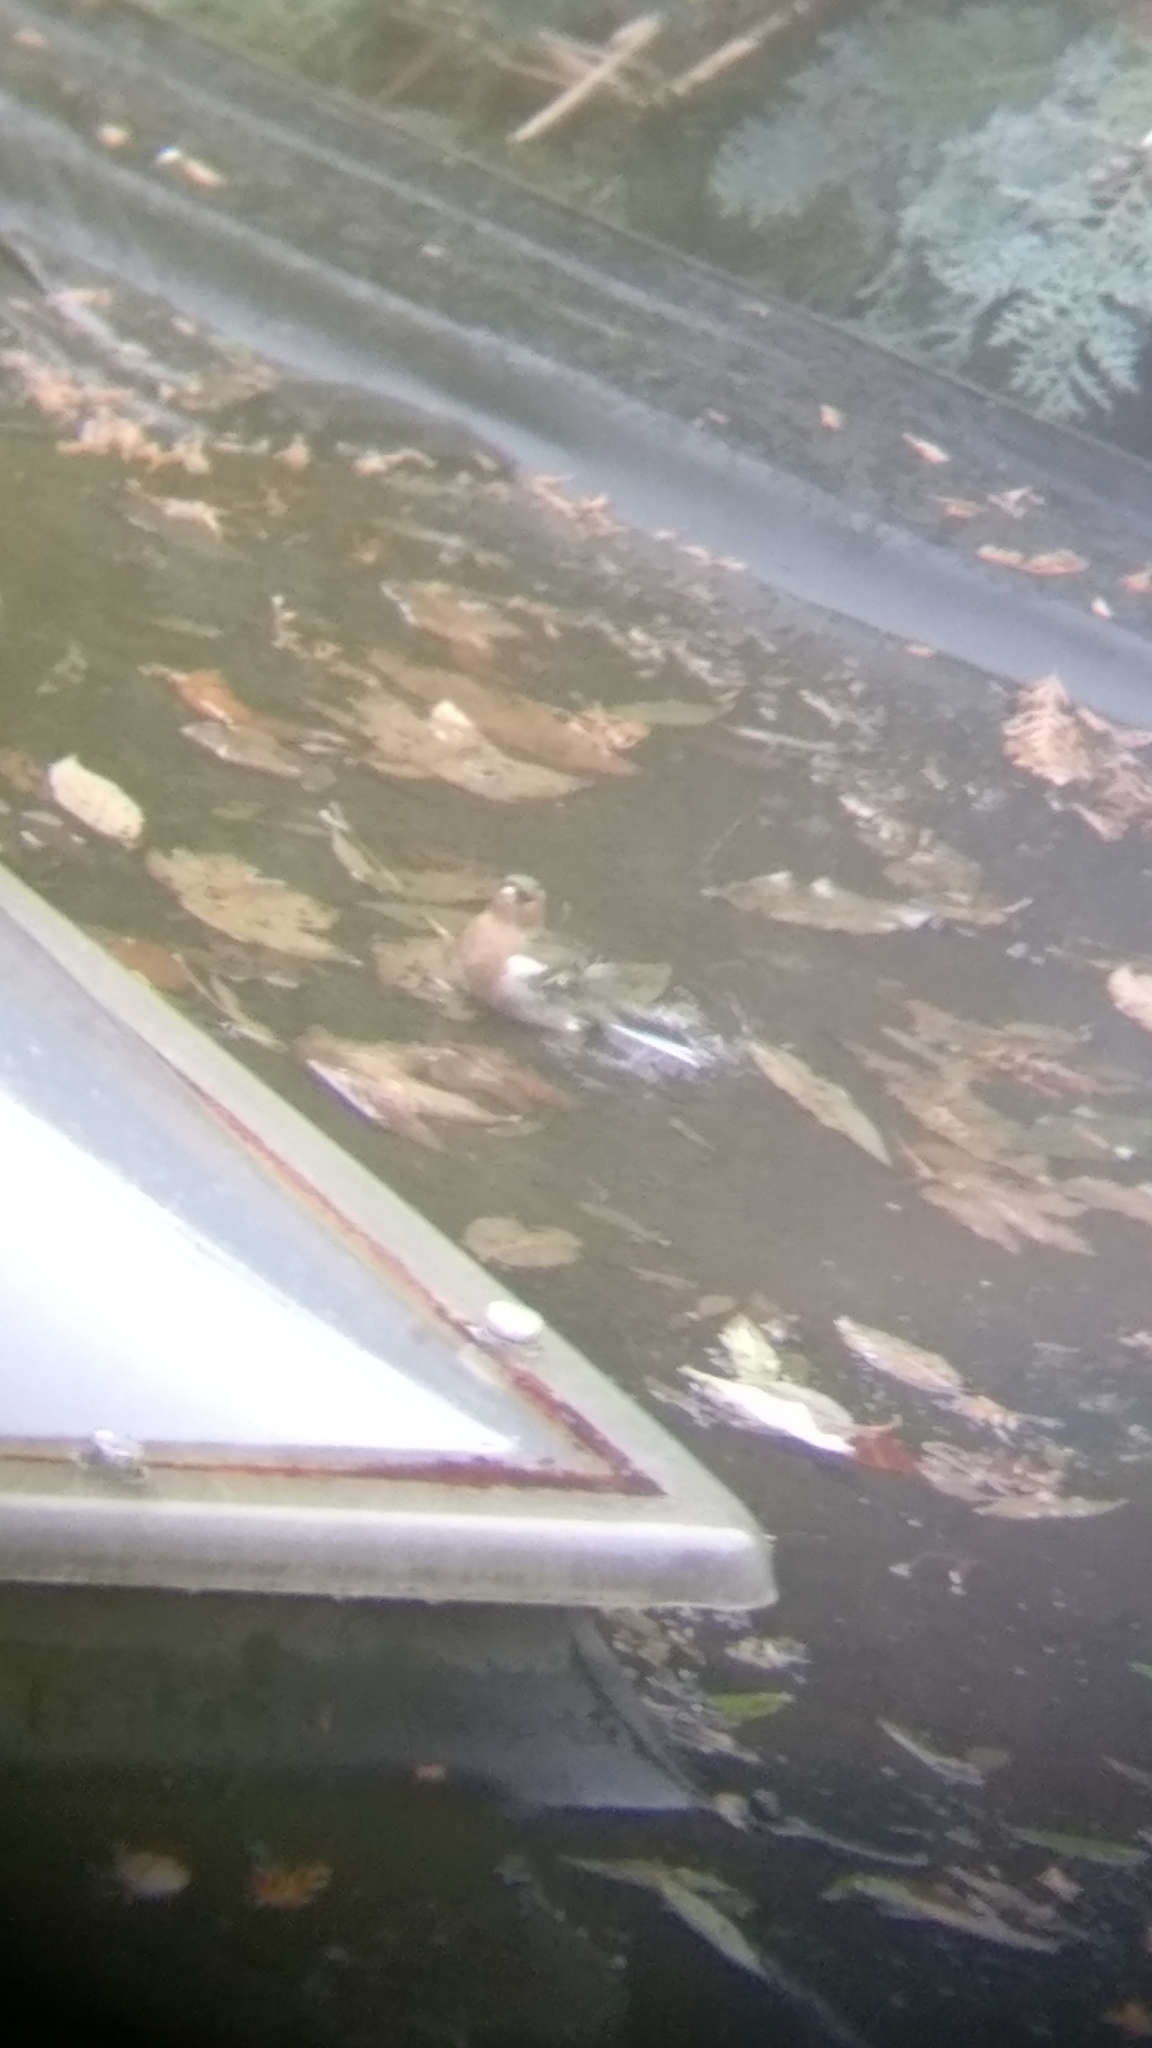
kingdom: Animalia
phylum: Chordata
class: Aves
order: Passeriformes
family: Fringillidae
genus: Fringilla
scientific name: Fringilla coelebs
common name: Common chaffinch
